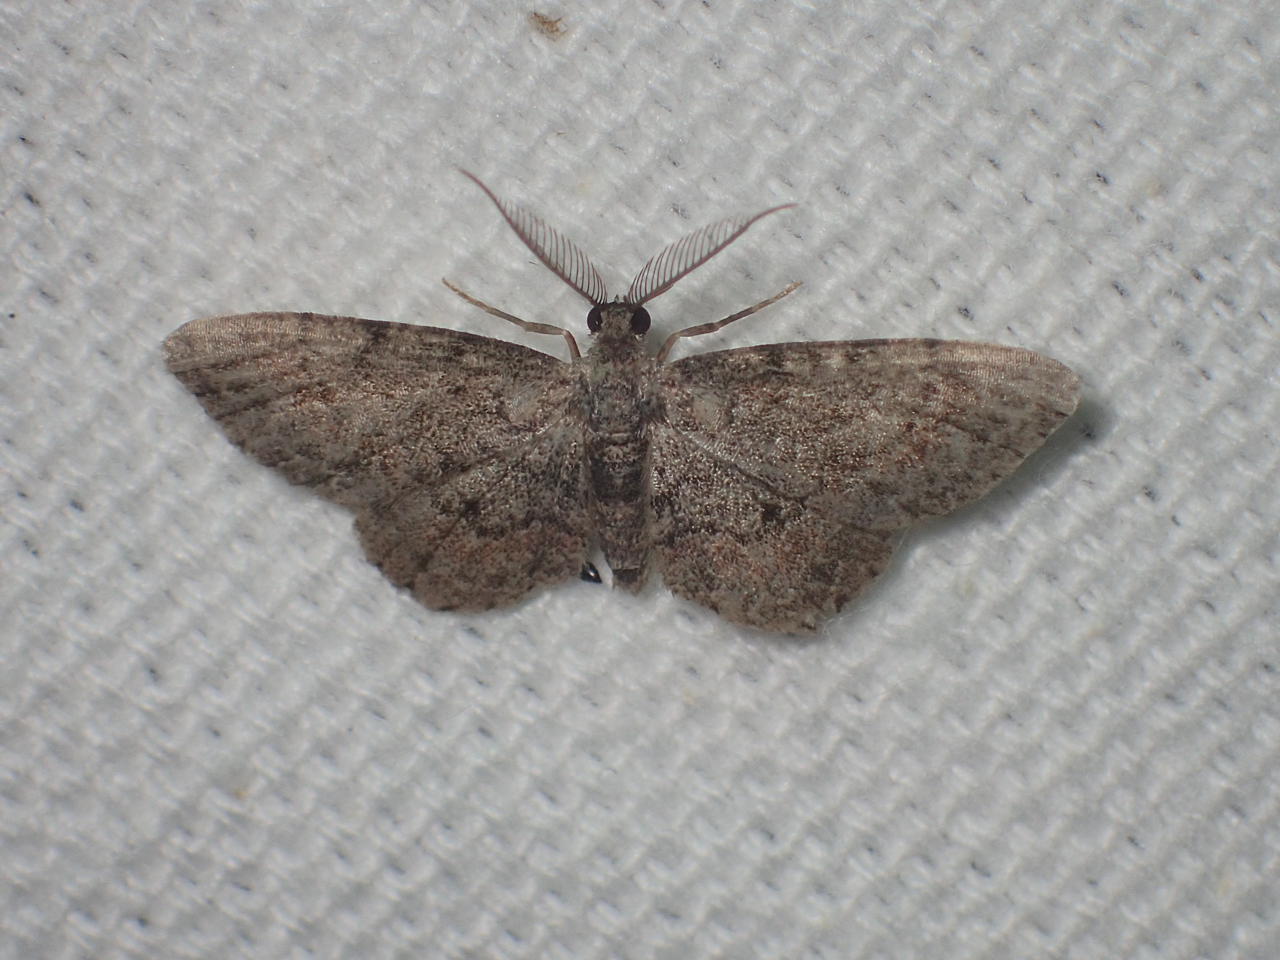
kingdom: Animalia
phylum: Arthropoda
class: Insecta
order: Lepidoptera
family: Geometridae
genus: Glenoides
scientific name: Glenoides texanaria
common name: Texas gray
